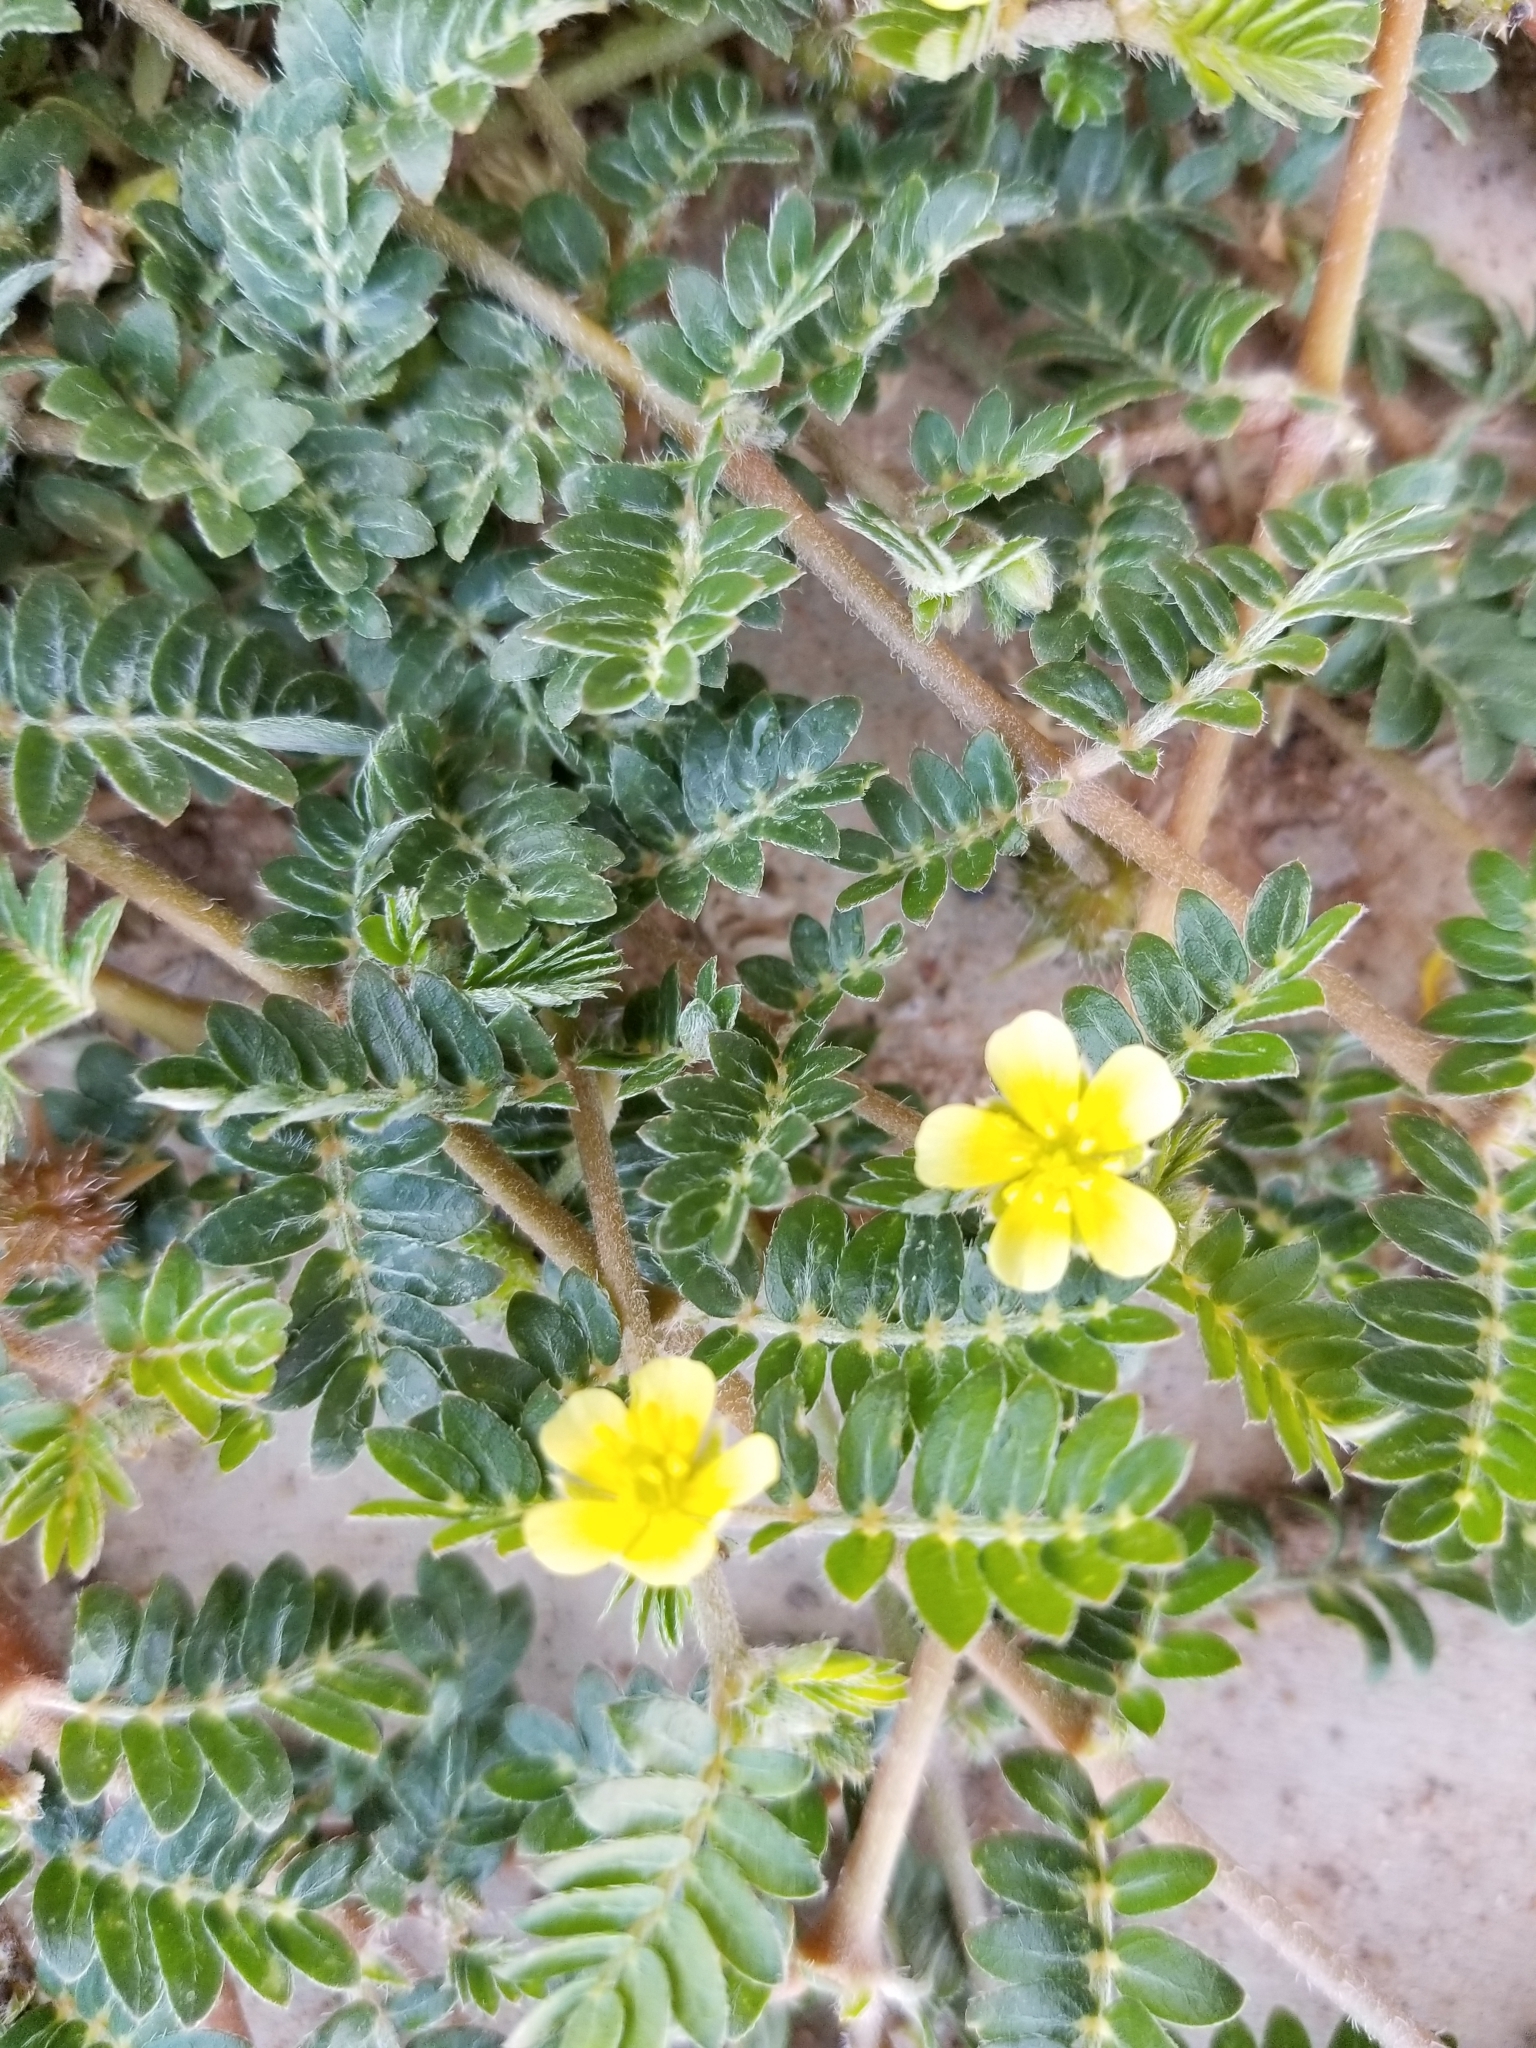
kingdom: Plantae
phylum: Tracheophyta
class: Magnoliopsida
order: Zygophyllales
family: Zygophyllaceae
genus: Tribulus
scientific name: Tribulus terrestris
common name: Puncturevine
